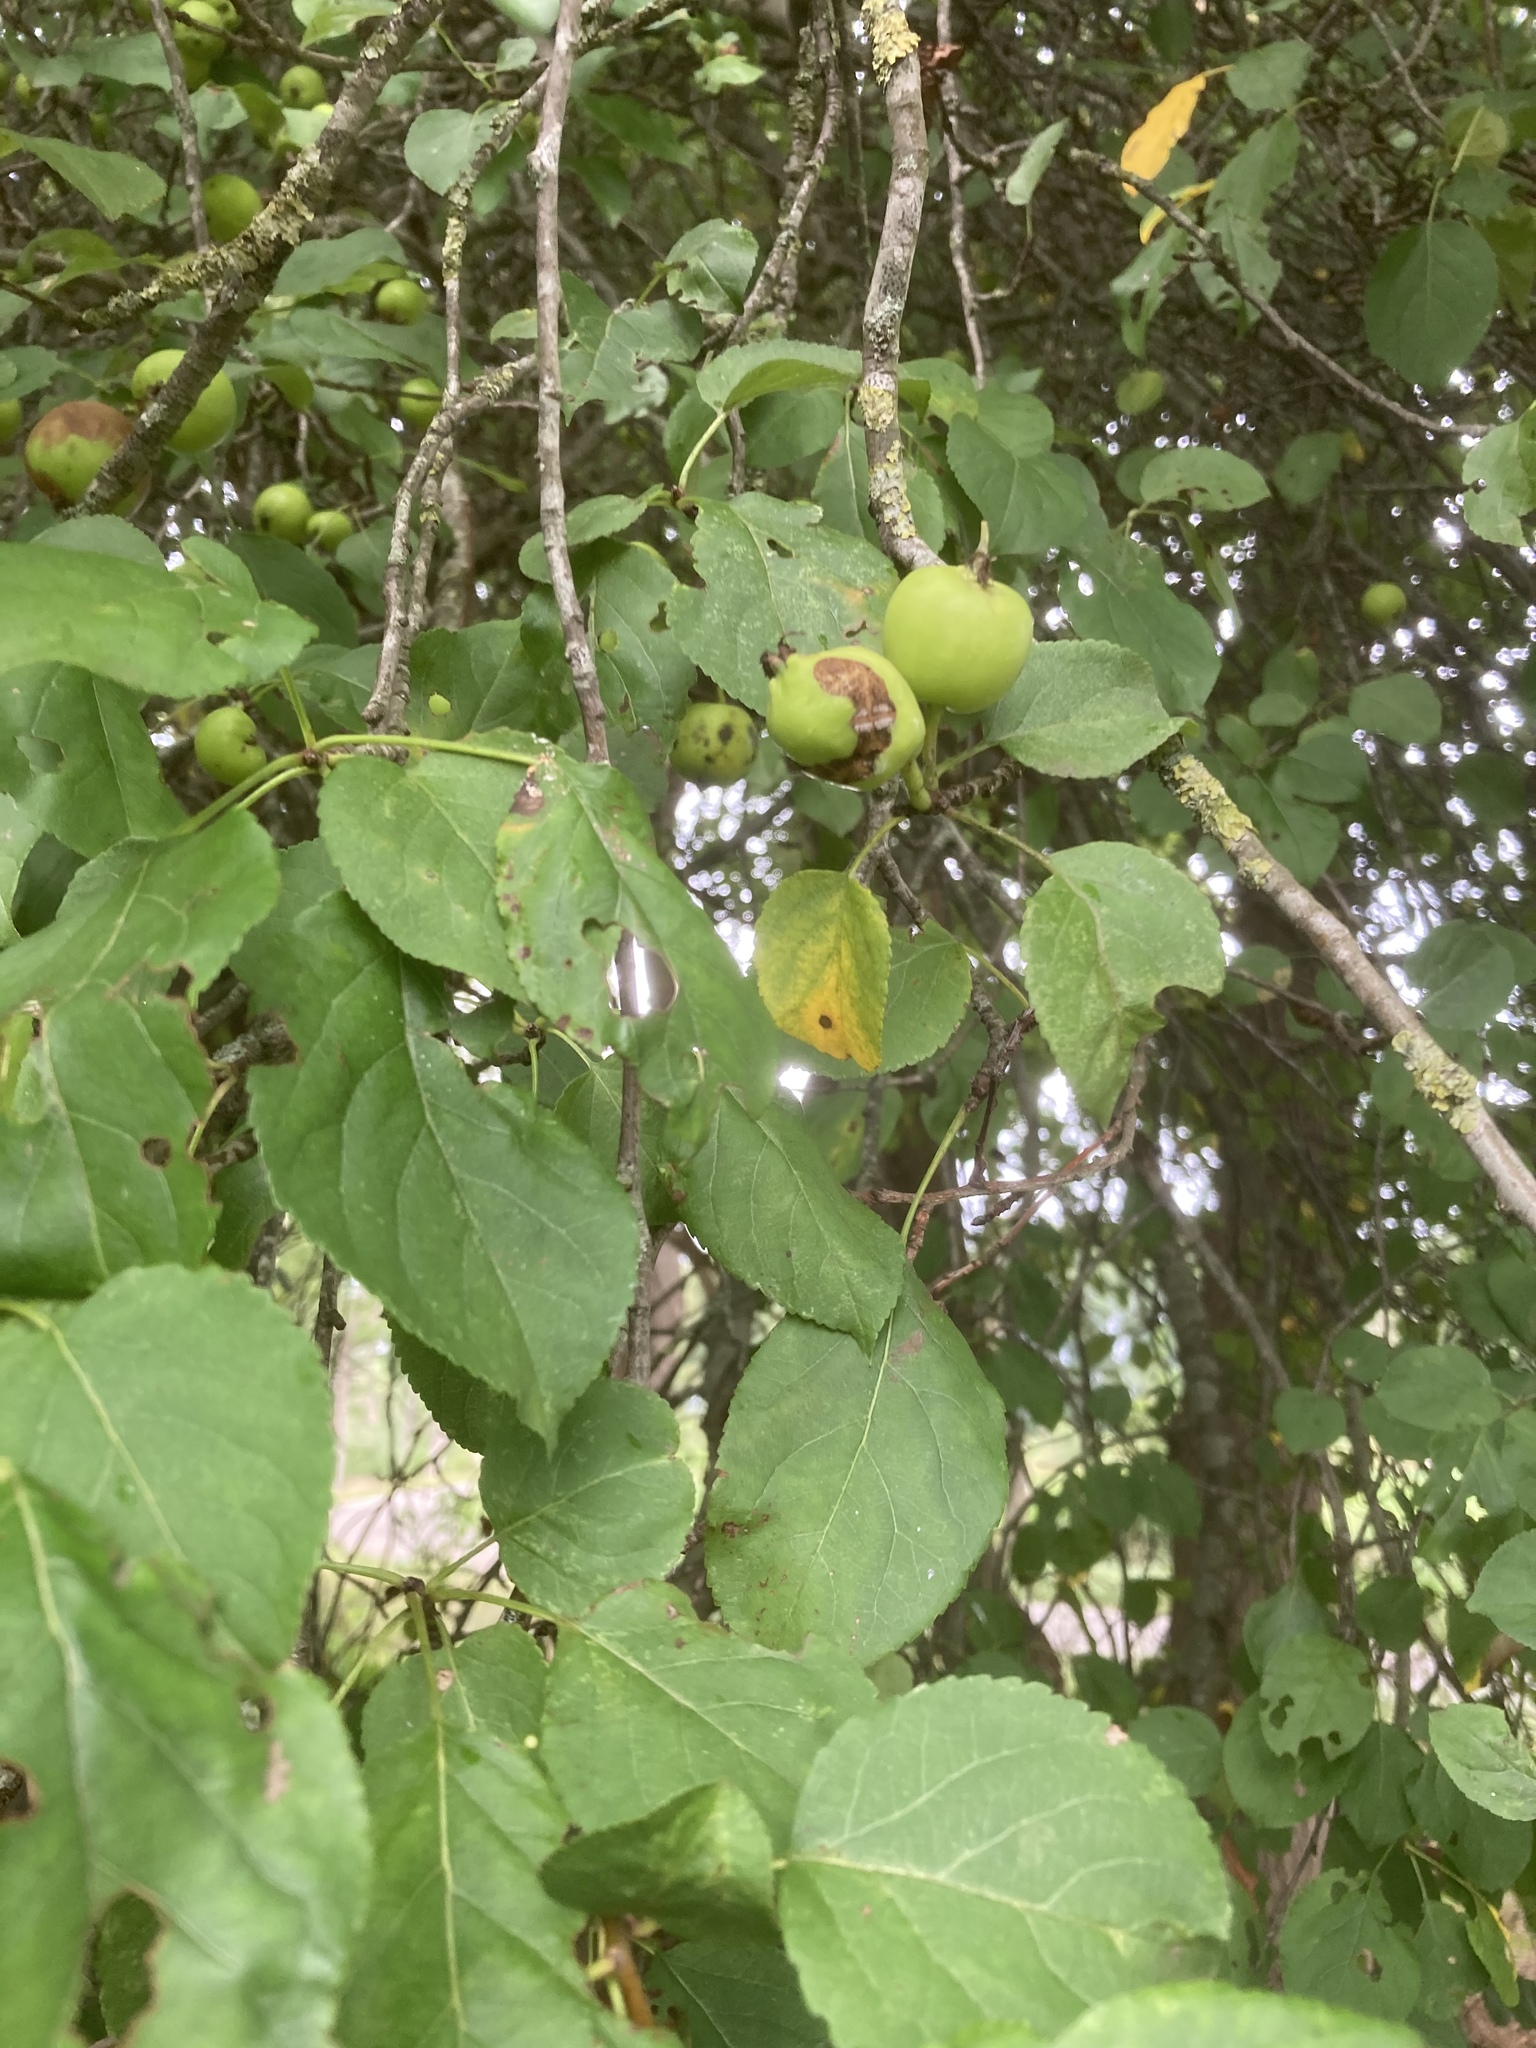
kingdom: Plantae
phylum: Tracheophyta
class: Magnoliopsida
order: Rosales
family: Rosaceae
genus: Malus
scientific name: Malus sylvestris
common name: Crab apple
